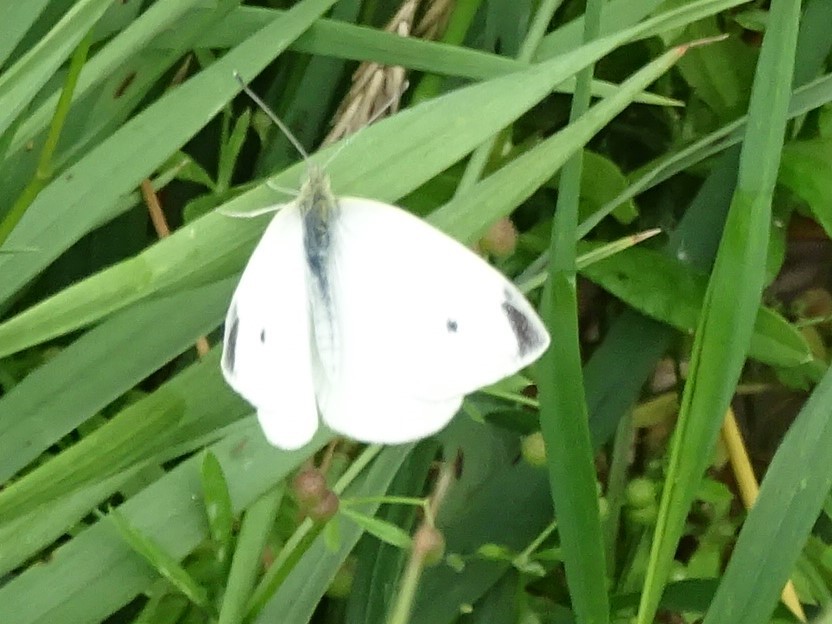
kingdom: Animalia
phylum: Arthropoda
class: Insecta
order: Lepidoptera
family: Pieridae
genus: Pieris
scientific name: Pieris rapae
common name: Small white
